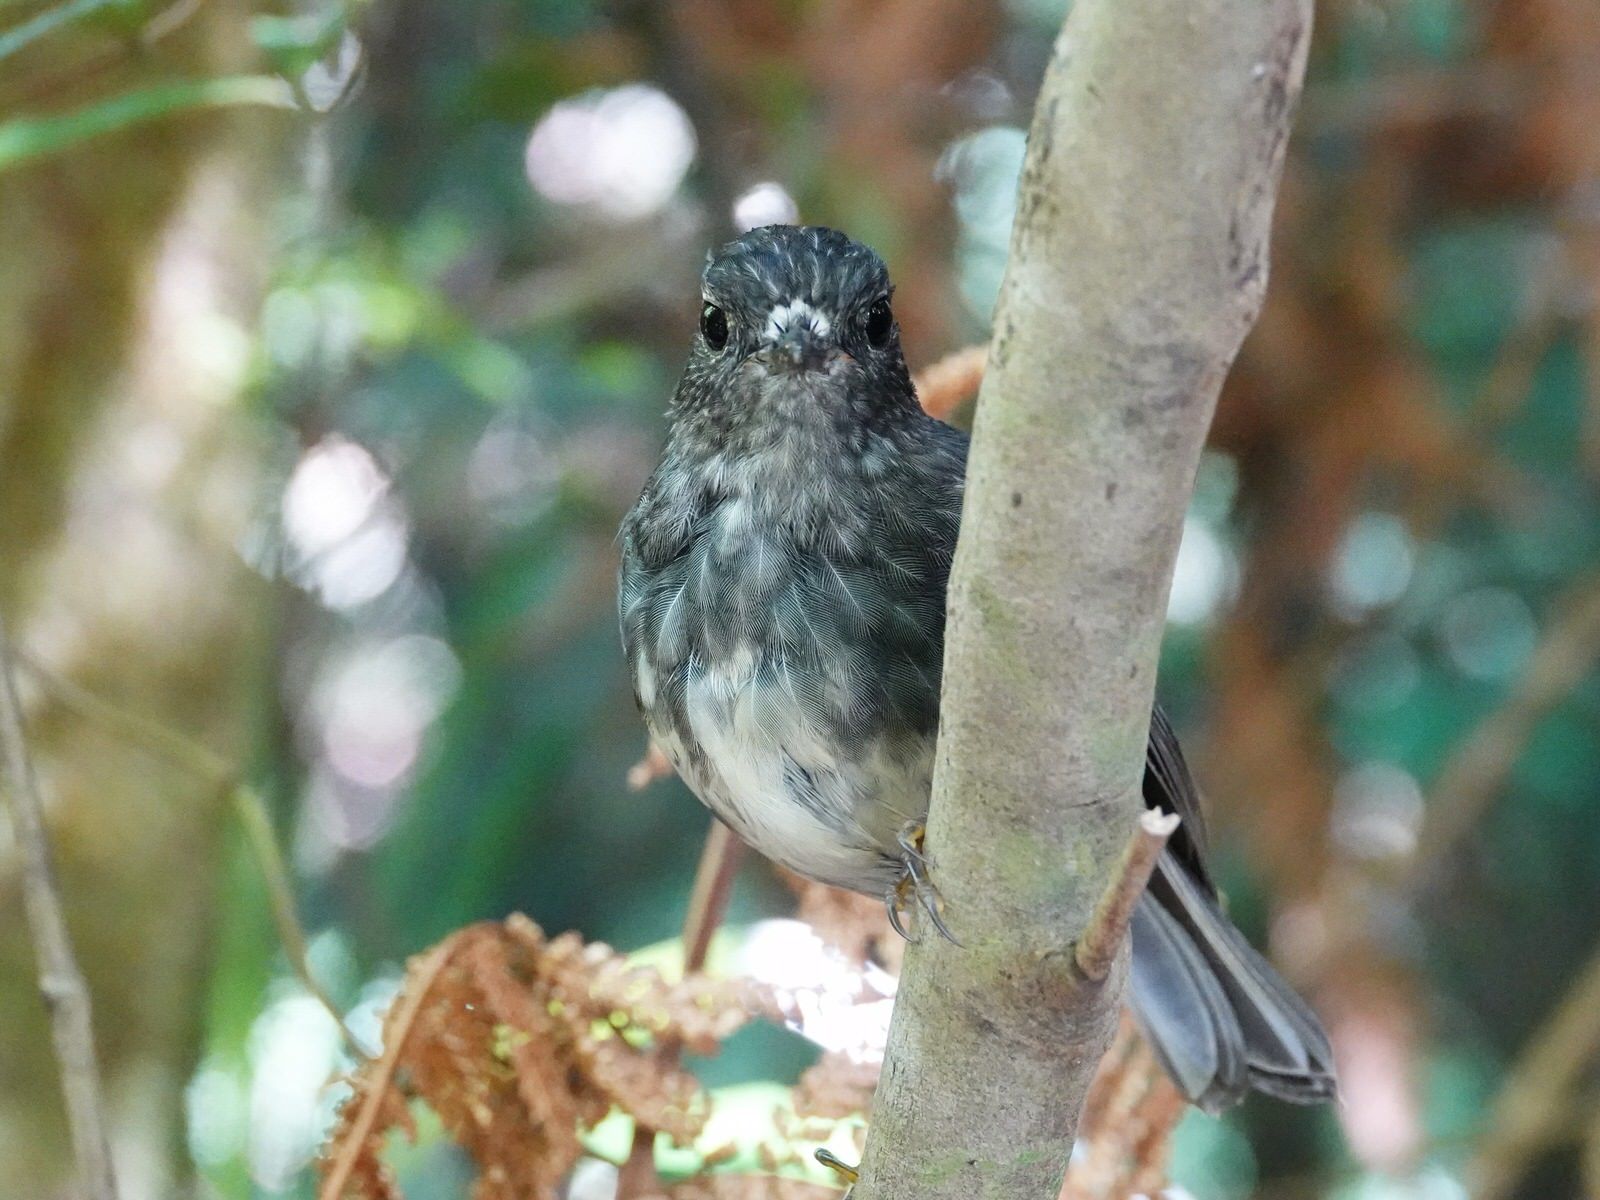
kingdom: Animalia
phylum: Chordata
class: Aves
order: Passeriformes
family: Petroicidae
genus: Petroica
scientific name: Petroica australis
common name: New zealand robin
